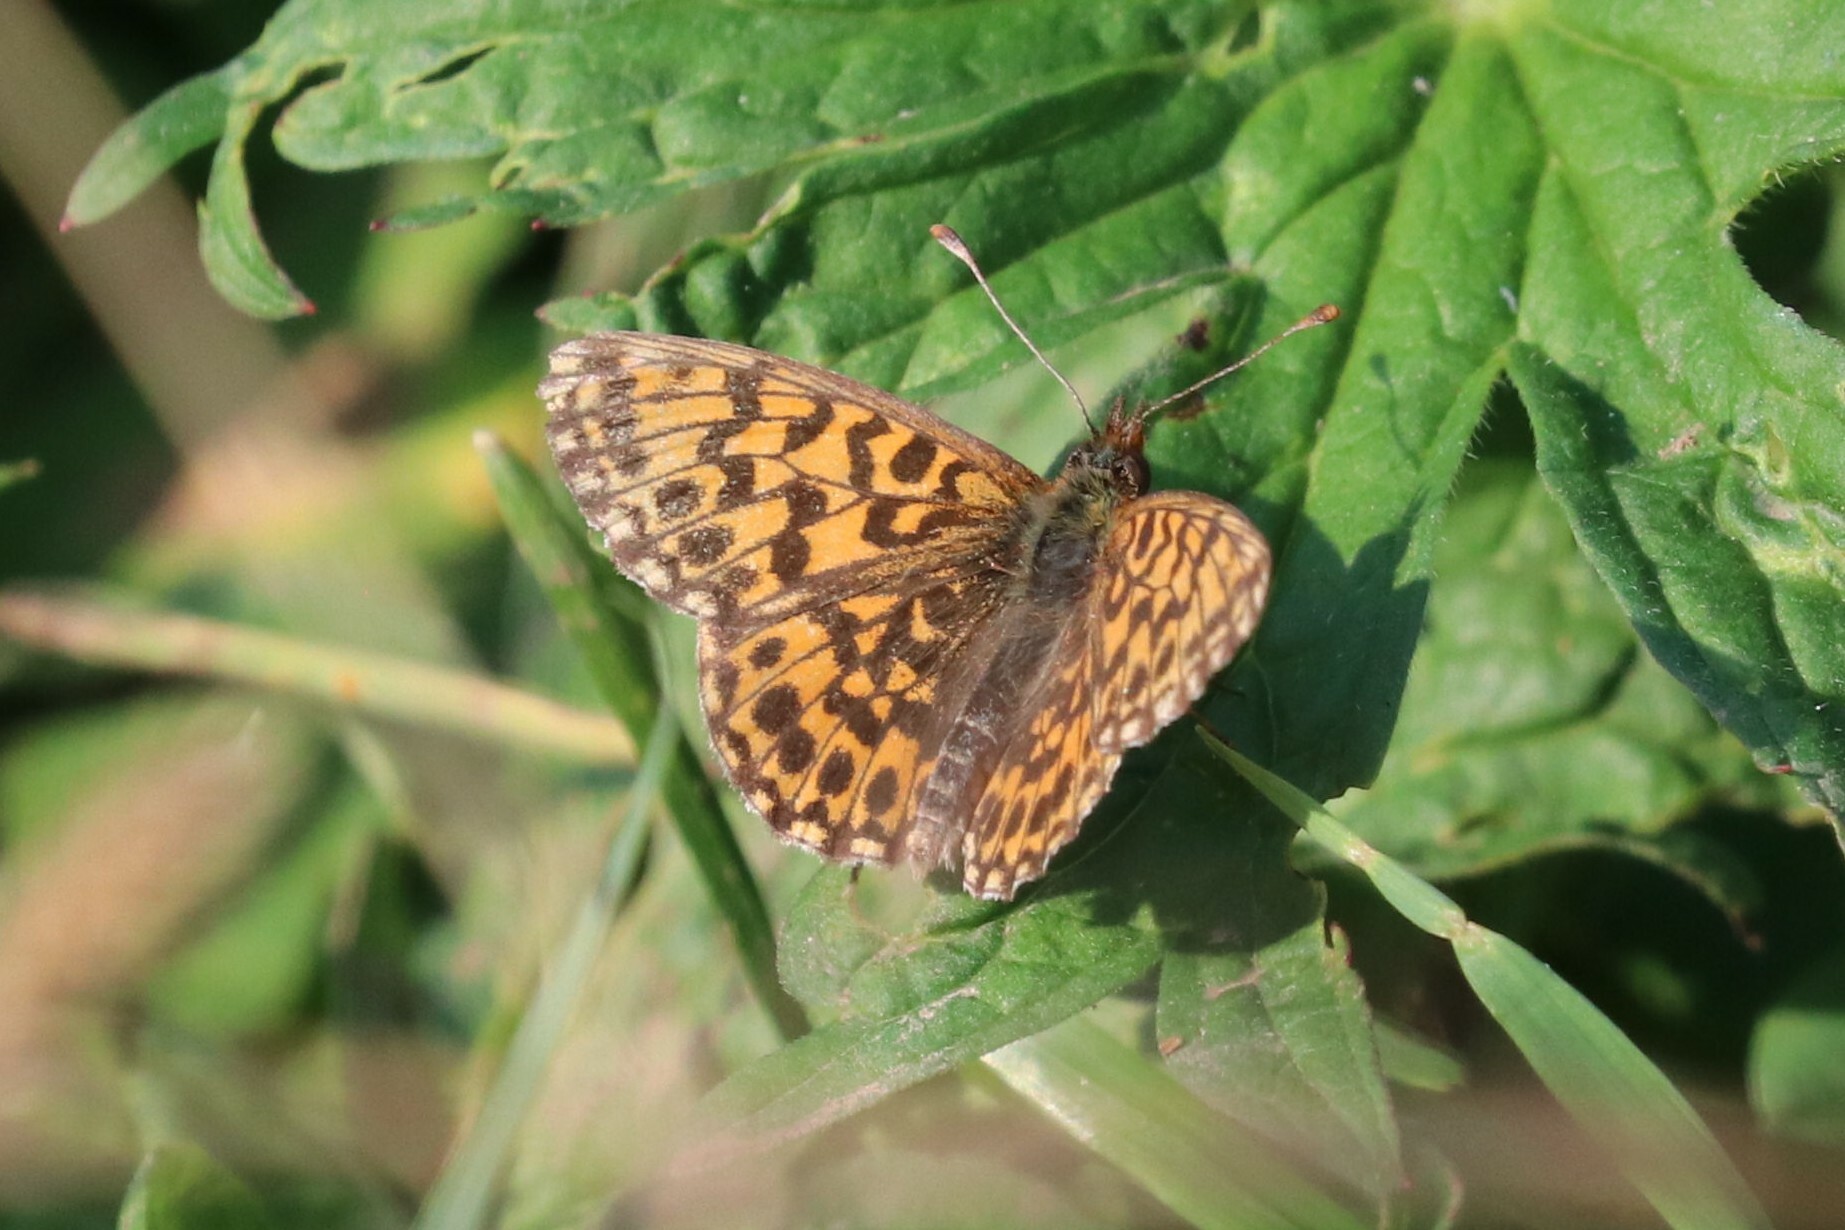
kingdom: Animalia
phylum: Arthropoda
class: Insecta
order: Lepidoptera
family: Nymphalidae
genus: Boloria
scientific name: Boloria dia
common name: Weaver's fritillary
